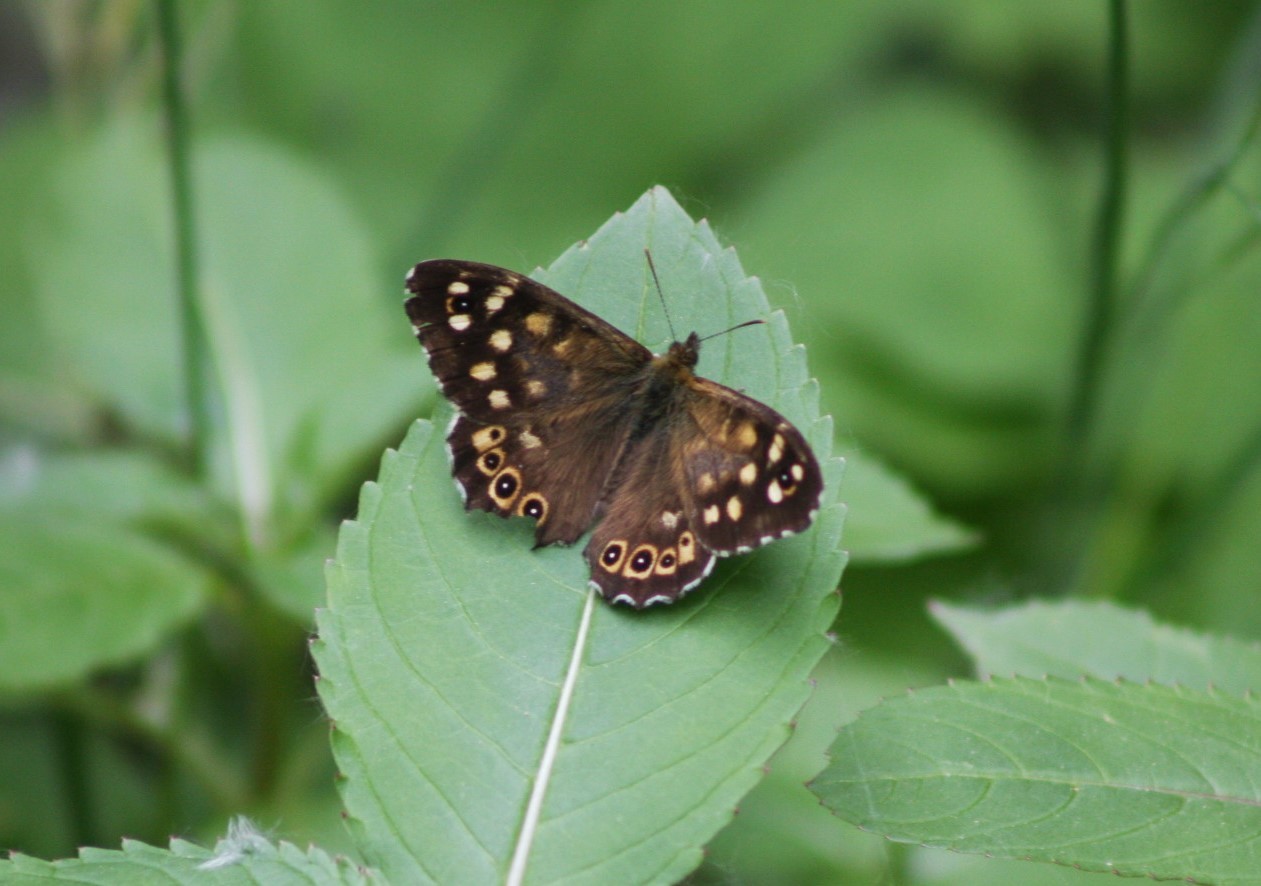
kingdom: Animalia
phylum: Arthropoda
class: Insecta
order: Lepidoptera
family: Nymphalidae
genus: Pararge
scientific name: Pararge aegeria
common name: Speckled wood
